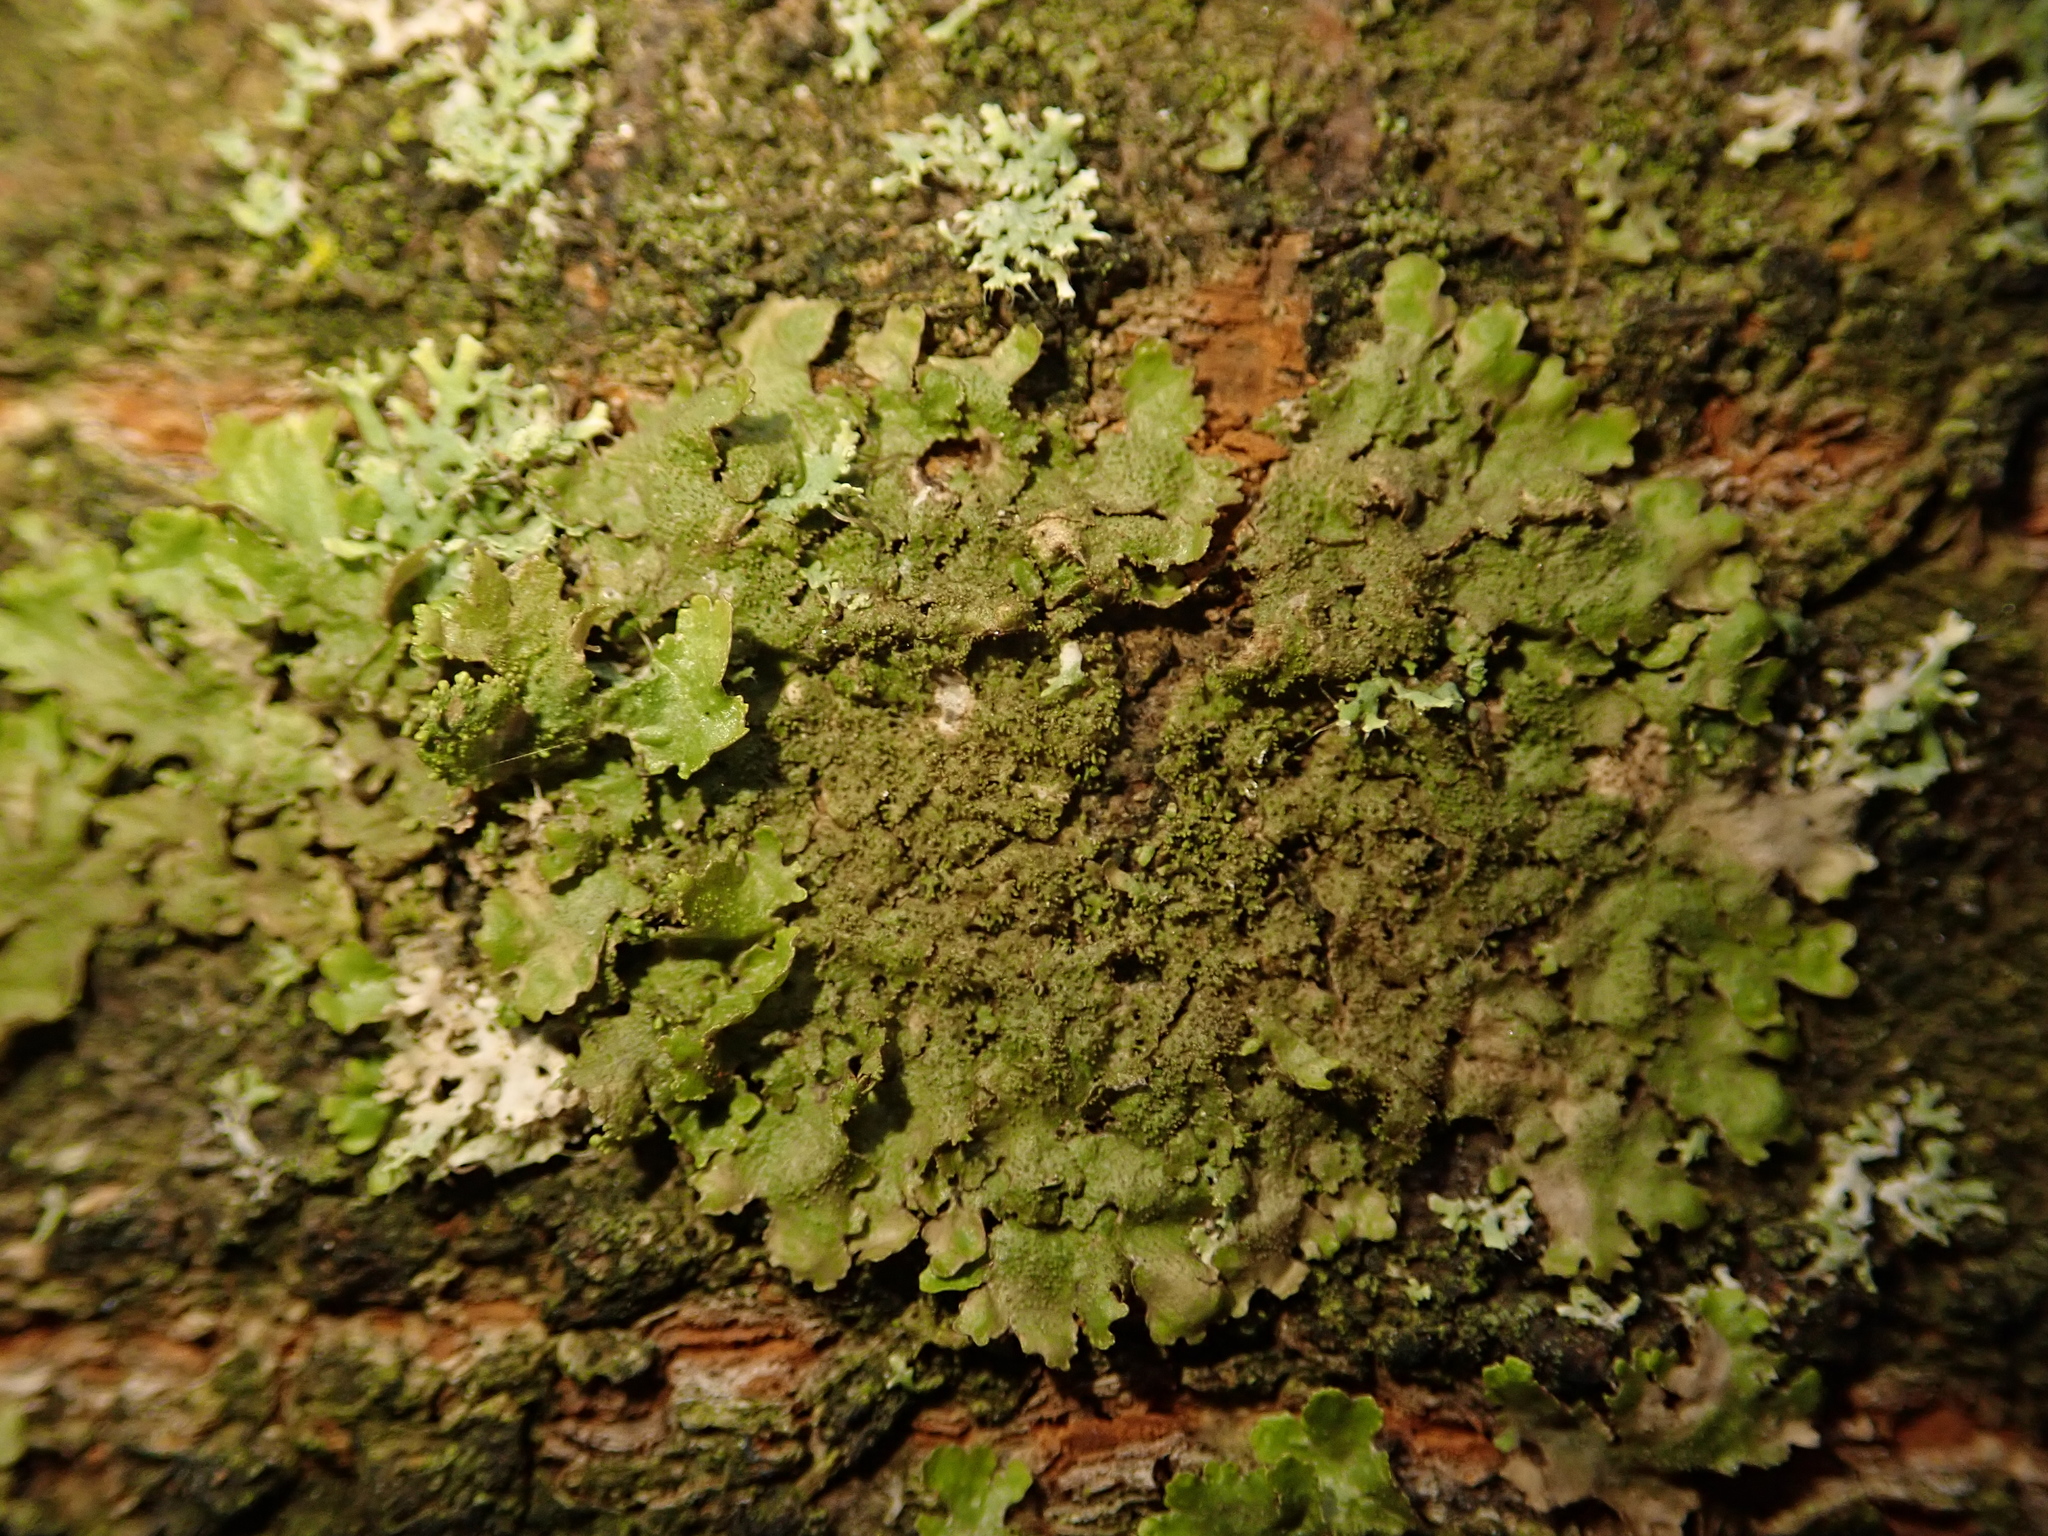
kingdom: Fungi
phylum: Ascomycota
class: Lecanoromycetes
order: Lecanorales
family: Parmeliaceae
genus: Melanohalea
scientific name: Melanohalea exasperatula
